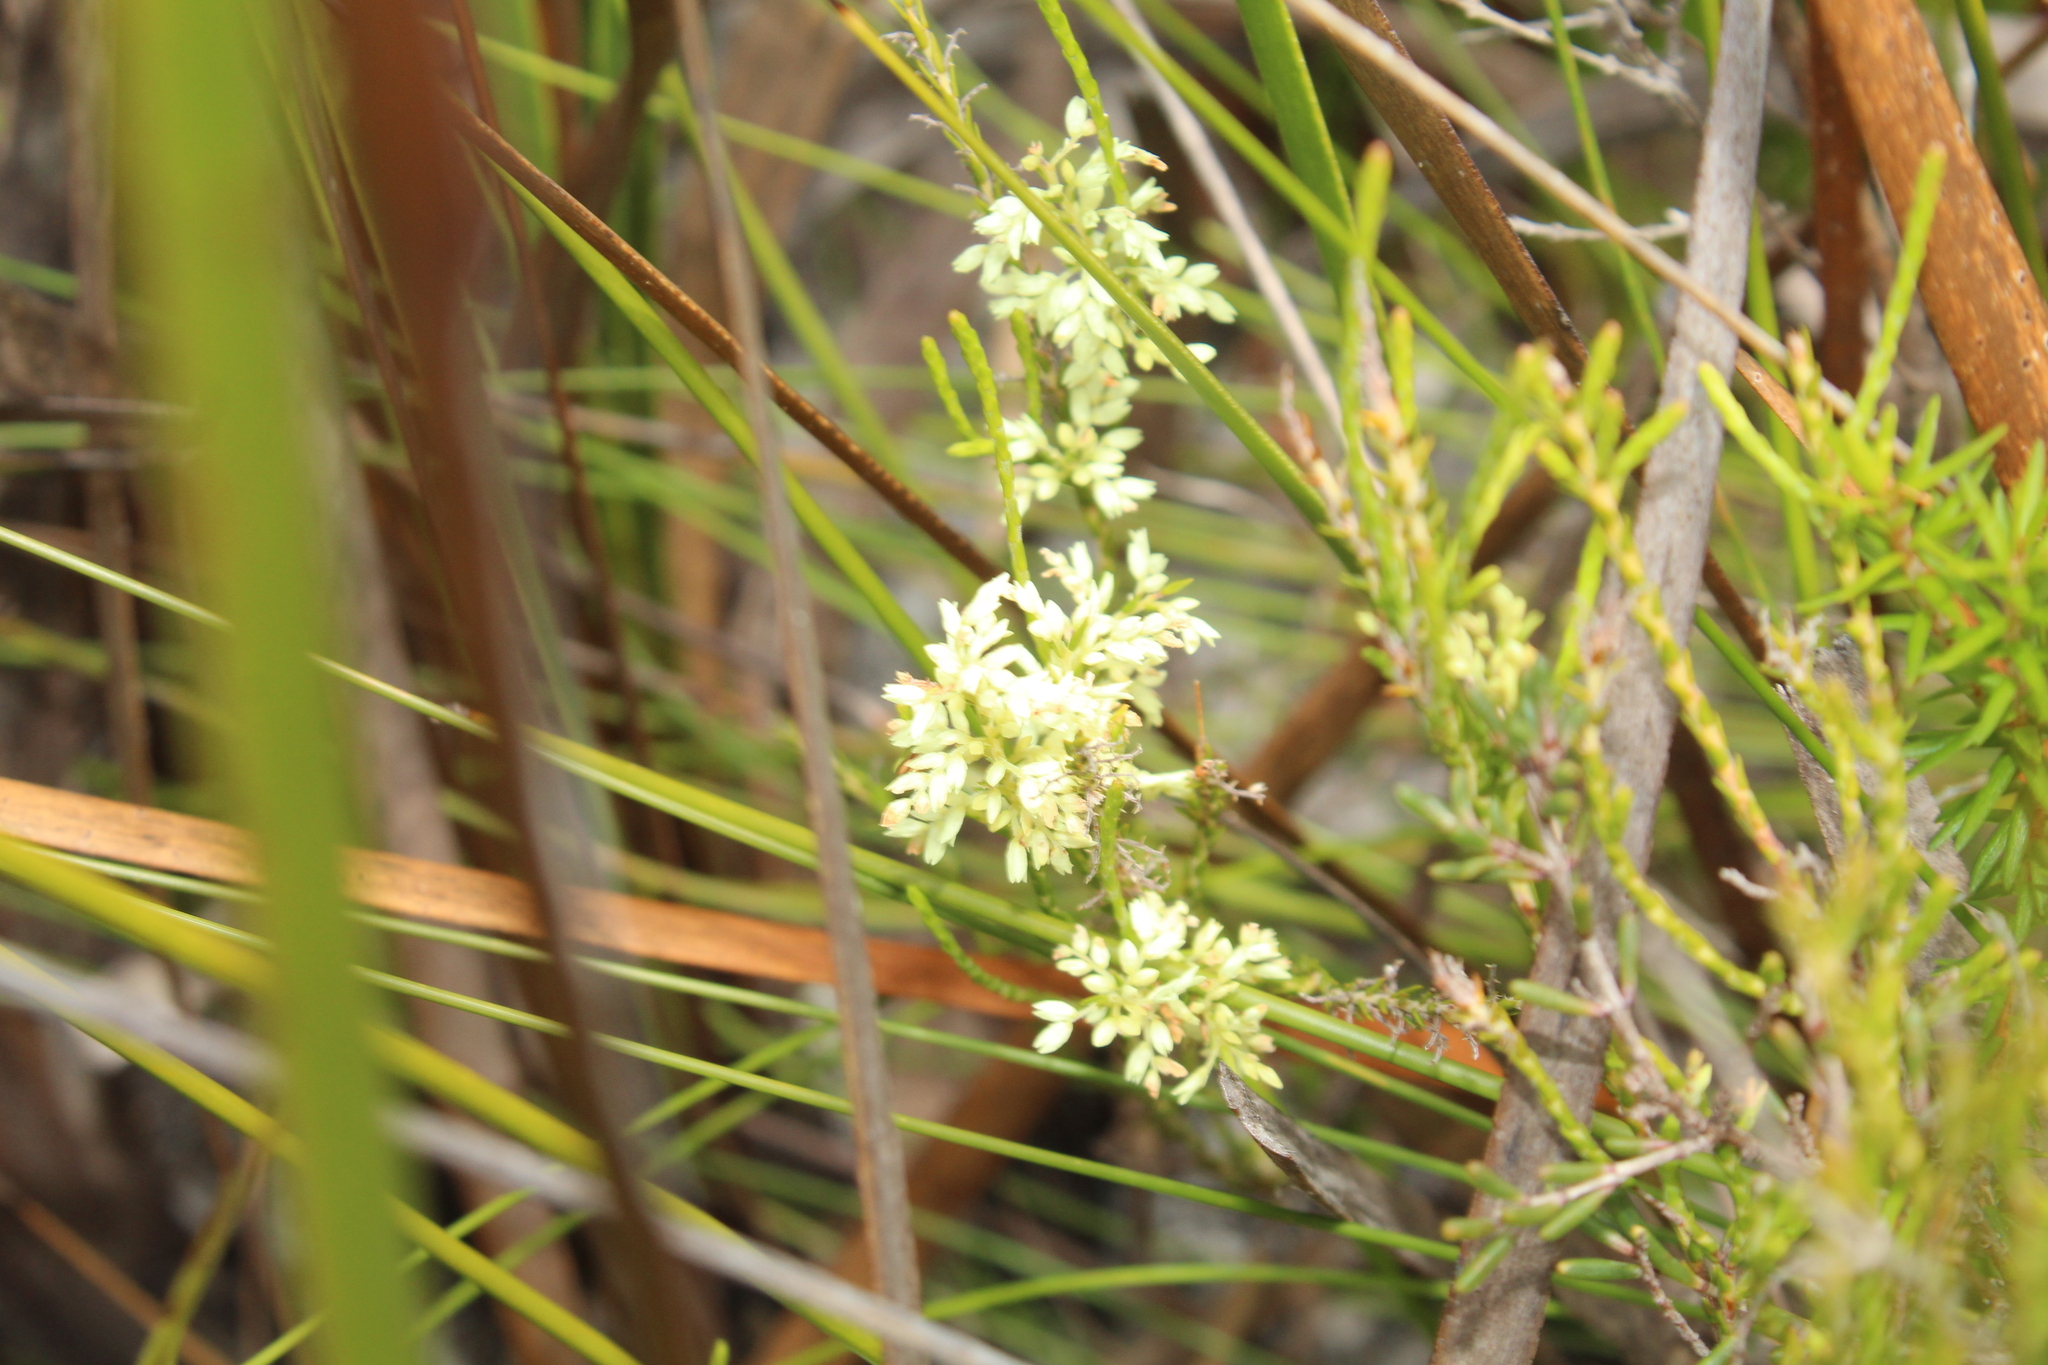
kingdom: Plantae
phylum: Tracheophyta
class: Magnoliopsida
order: Ericales
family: Ericaceae
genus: Oligarrhena
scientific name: Oligarrhena micrantha
